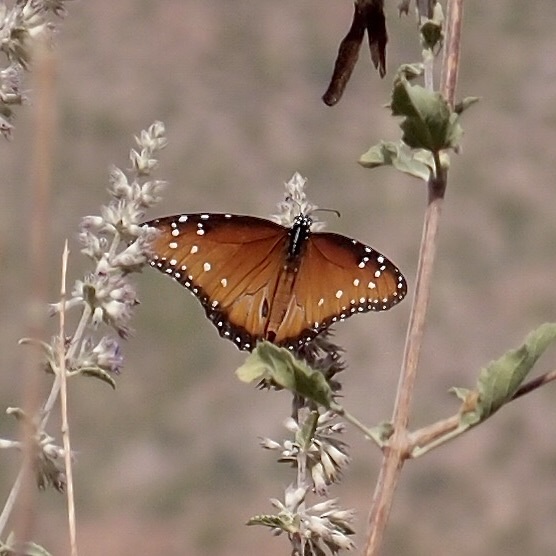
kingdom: Animalia
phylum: Arthropoda
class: Insecta
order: Lepidoptera
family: Nymphalidae
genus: Danaus
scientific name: Danaus gilippus
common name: Queen
